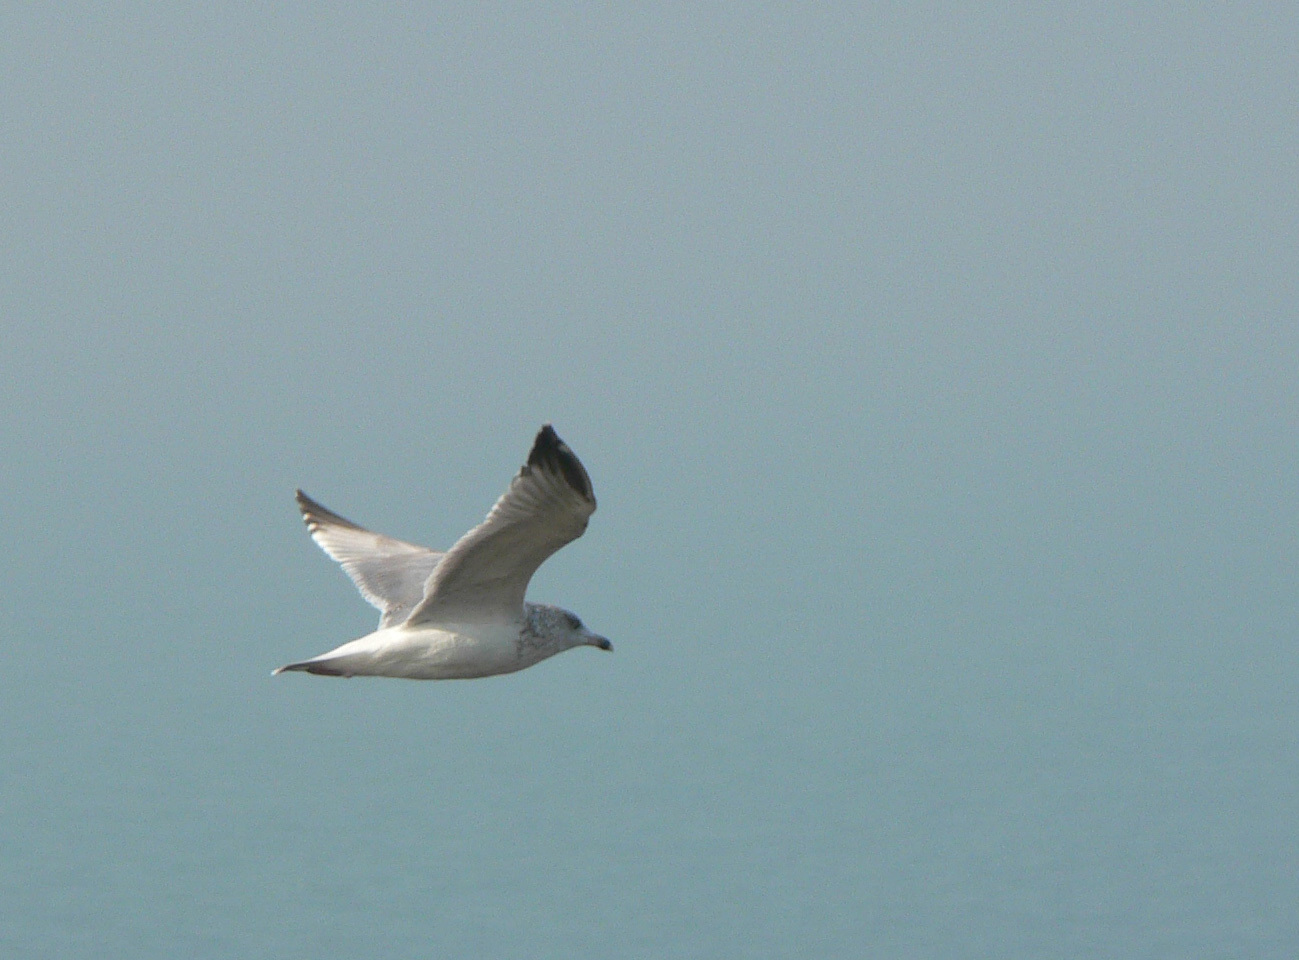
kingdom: Animalia
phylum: Chordata
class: Aves
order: Charadriiformes
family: Laridae
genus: Larus
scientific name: Larus argentatus
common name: Herring gull
